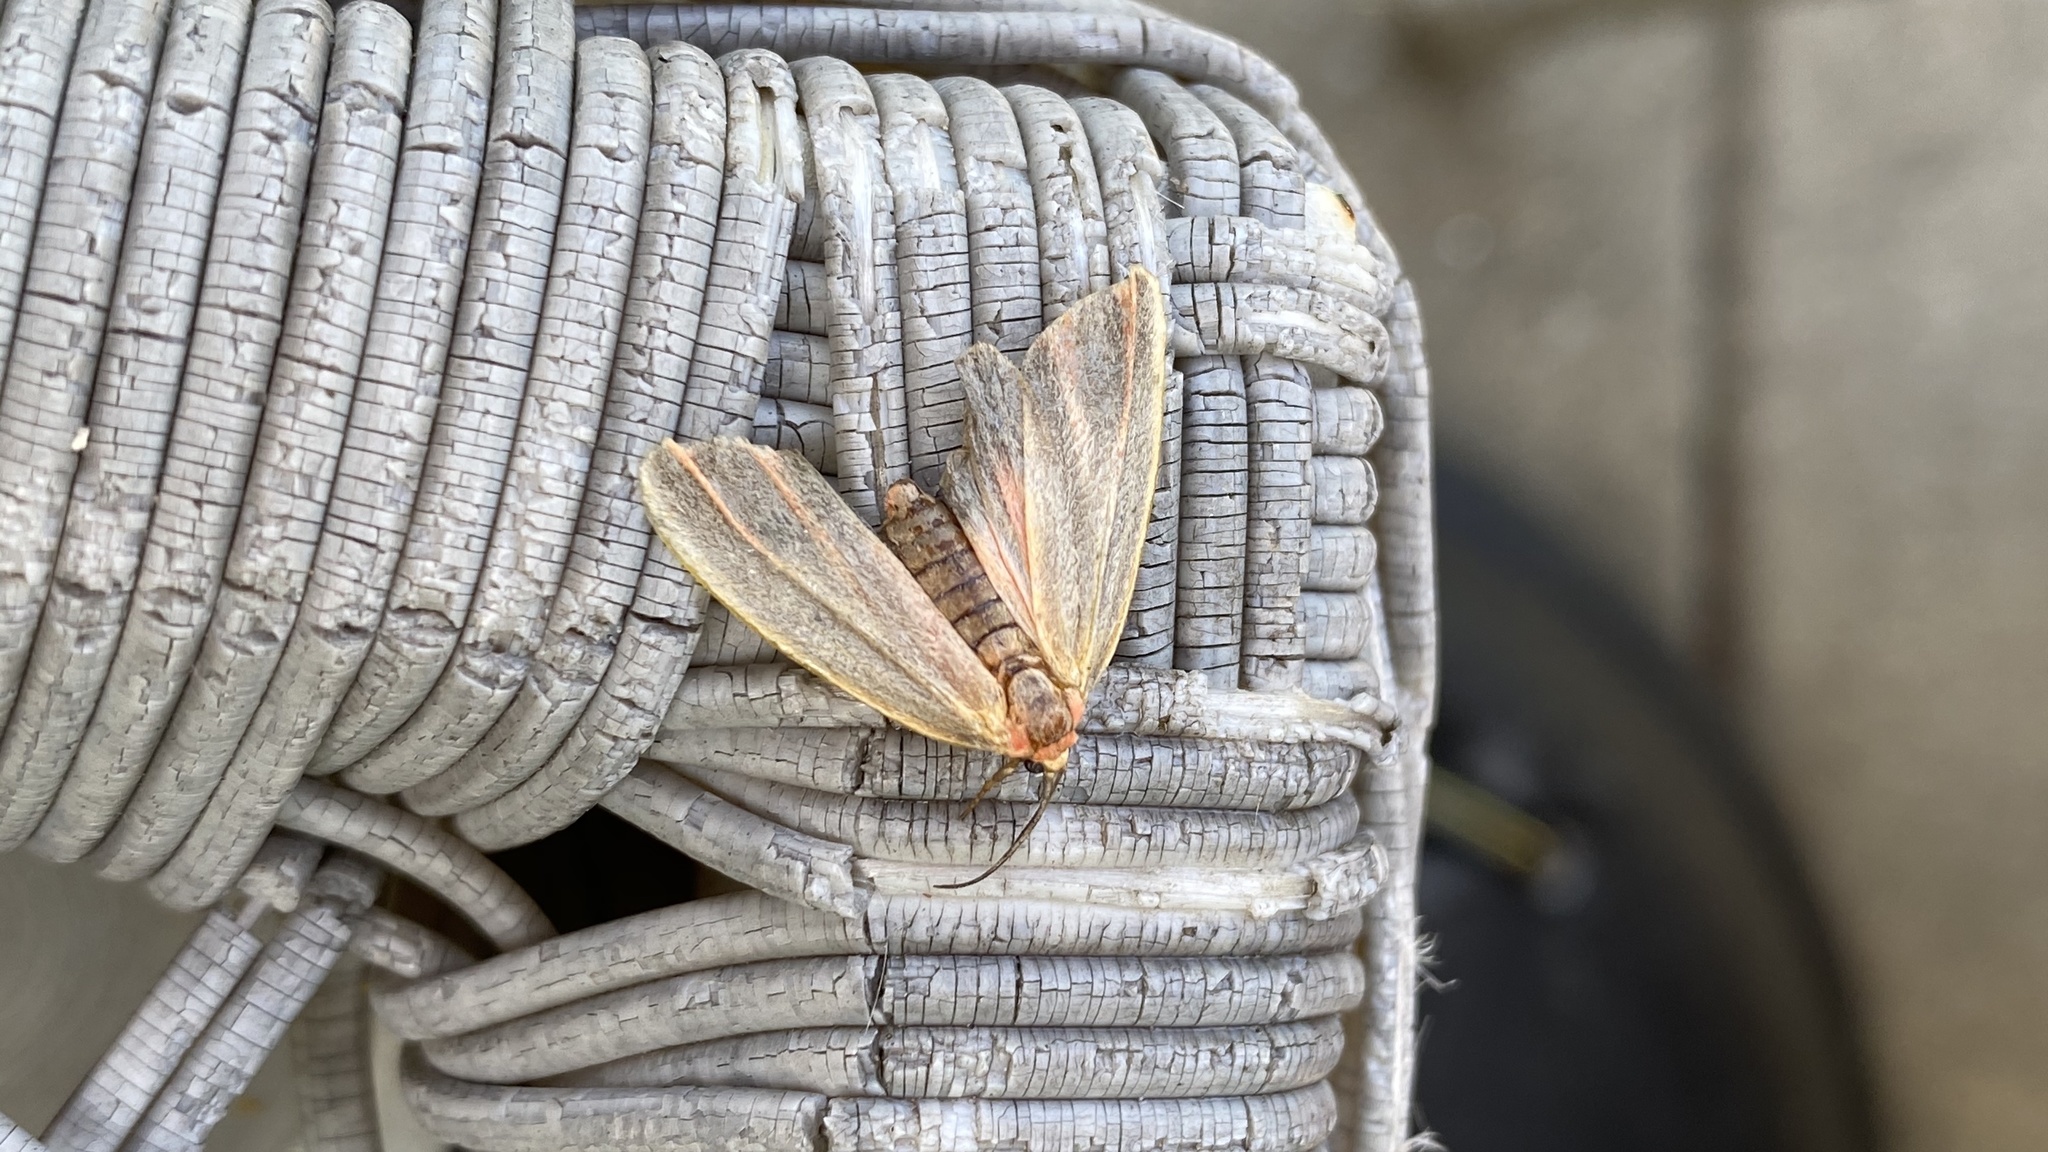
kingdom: Animalia
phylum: Arthropoda
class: Insecta
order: Lepidoptera
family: Erebidae
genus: Hypoprepia
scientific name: Hypoprepia fucosa
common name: Painted lichen moth
